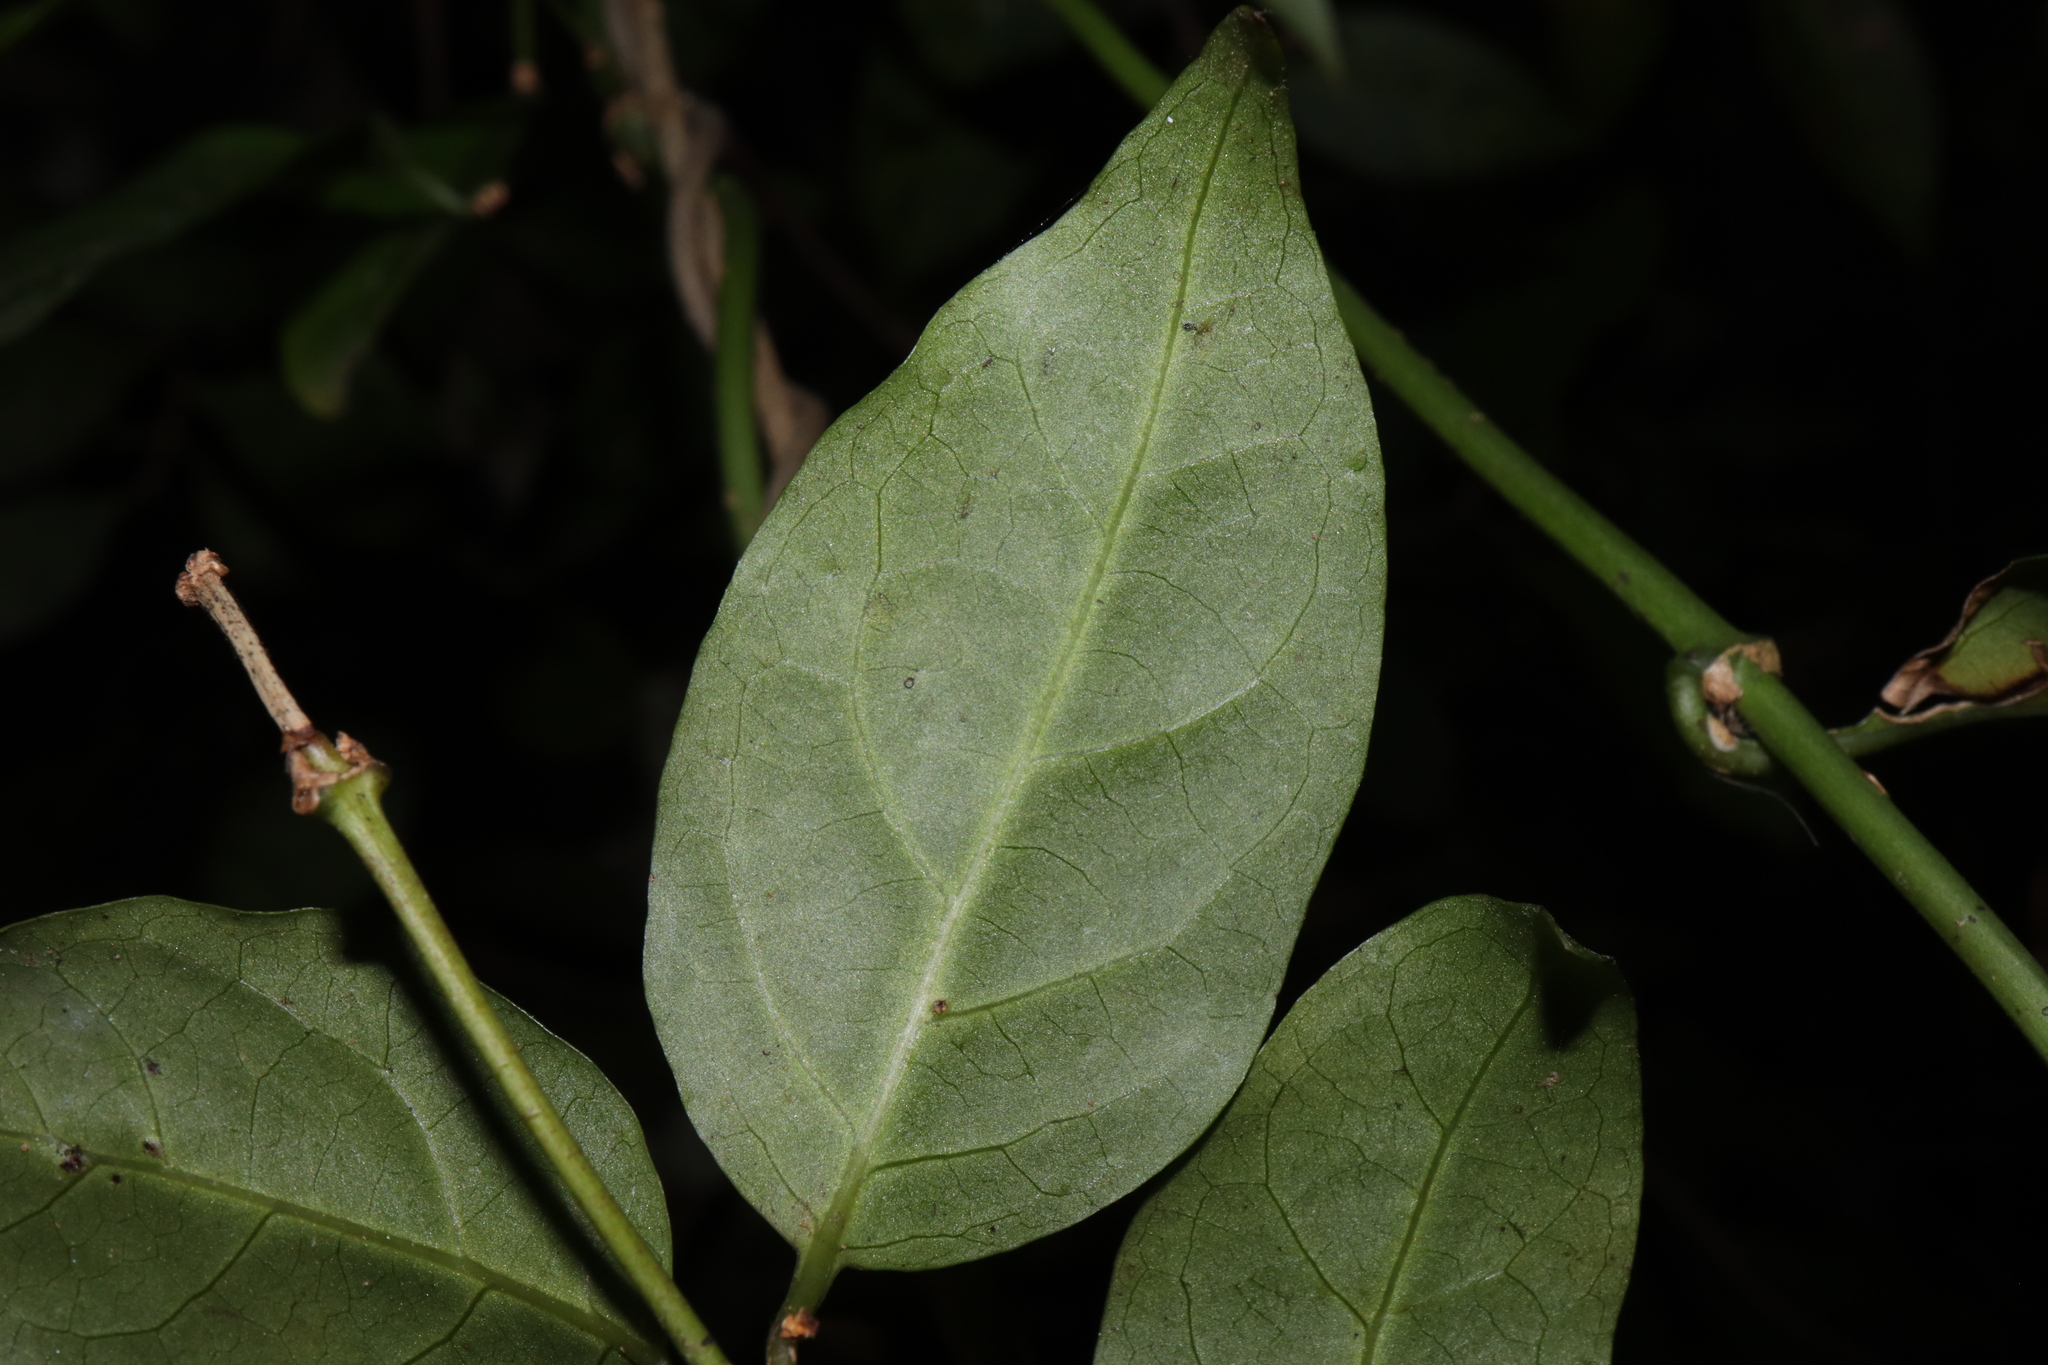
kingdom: Plantae
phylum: Tracheophyta
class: Magnoliopsida
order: Gentianales
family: Rubiaceae
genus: Gynochthodes
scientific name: Gynochthodes jasminoides
